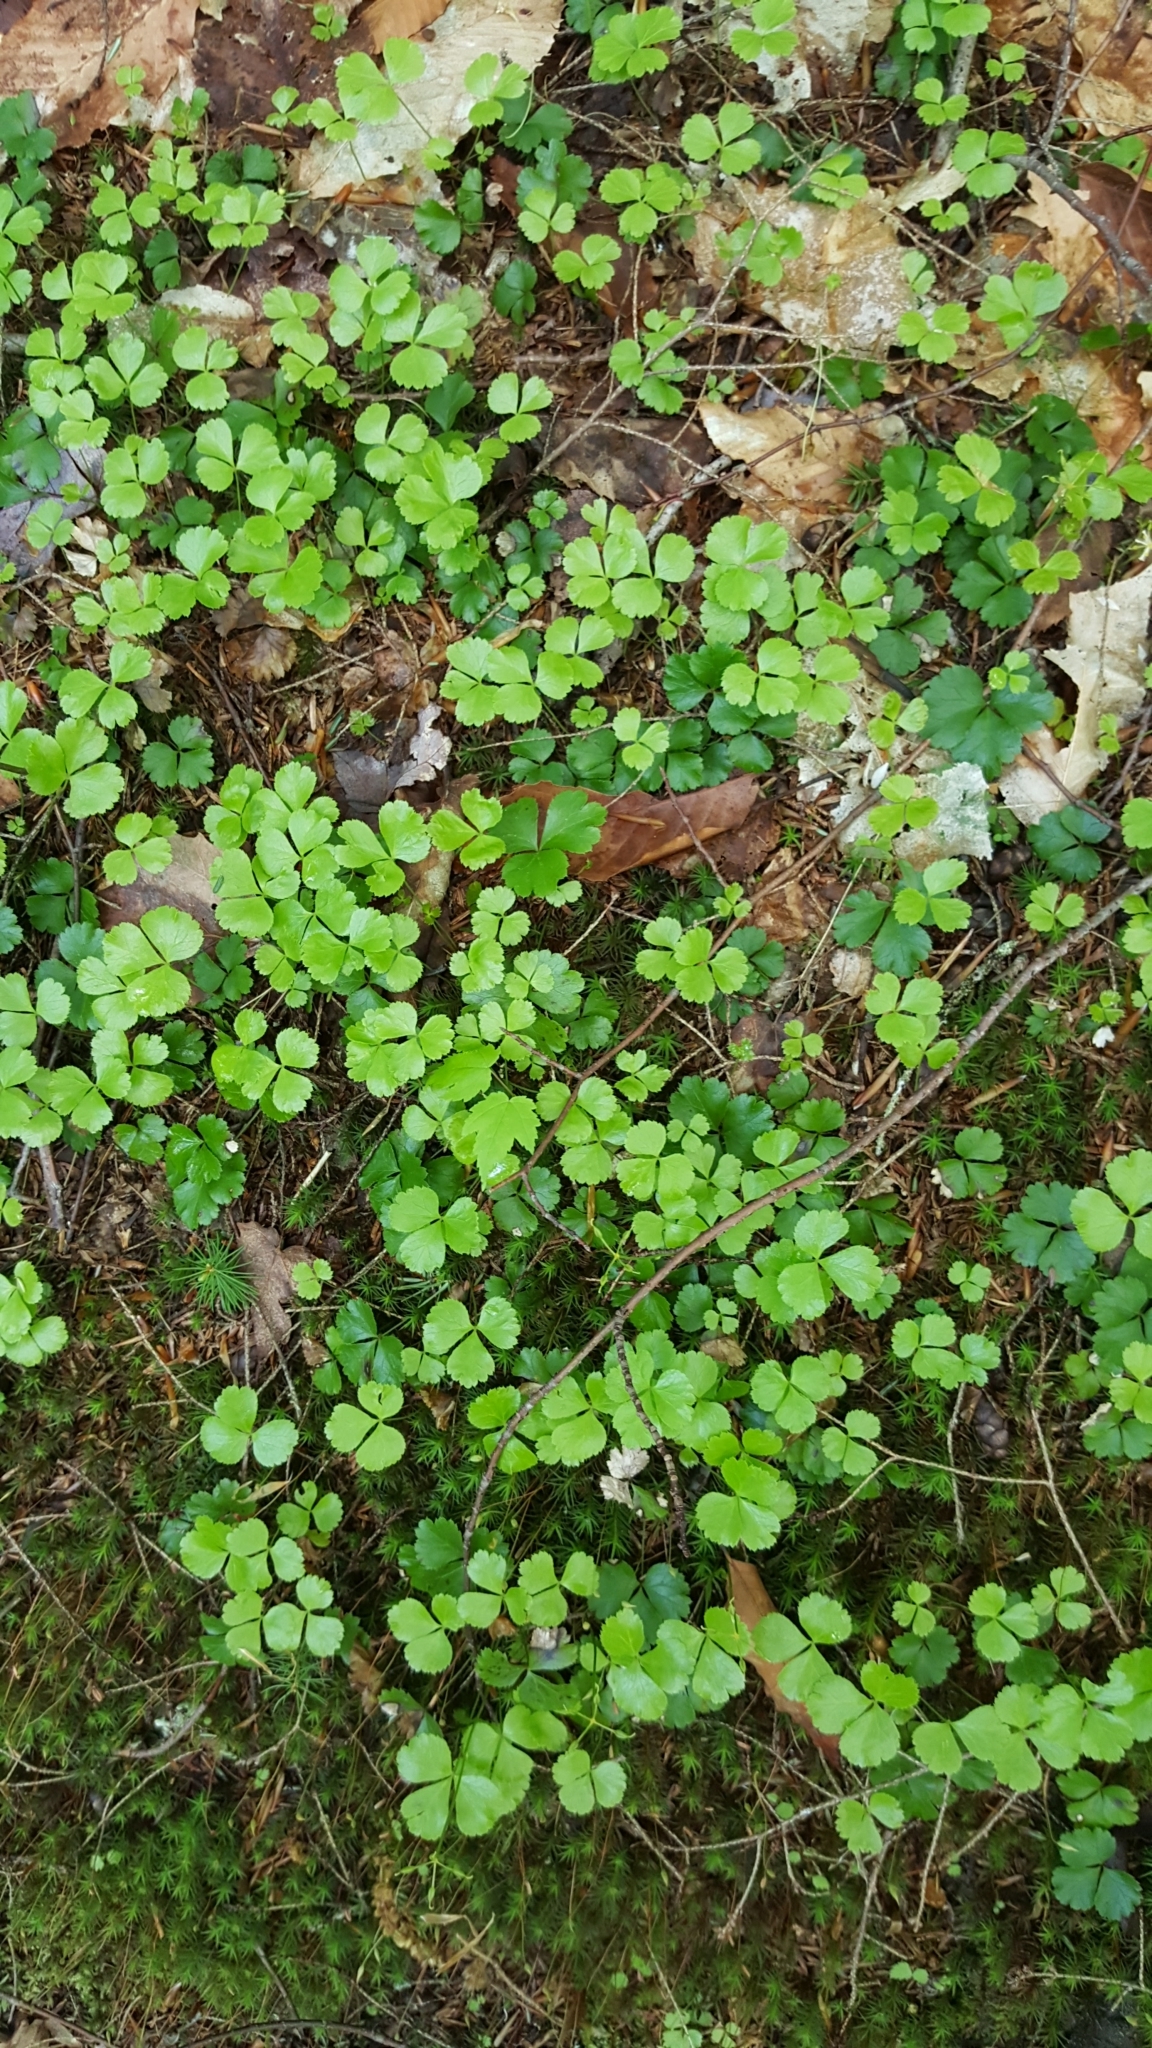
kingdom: Plantae
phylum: Tracheophyta
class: Magnoliopsida
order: Ranunculales
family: Ranunculaceae
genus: Coptis
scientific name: Coptis trifolia
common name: Canker-root
